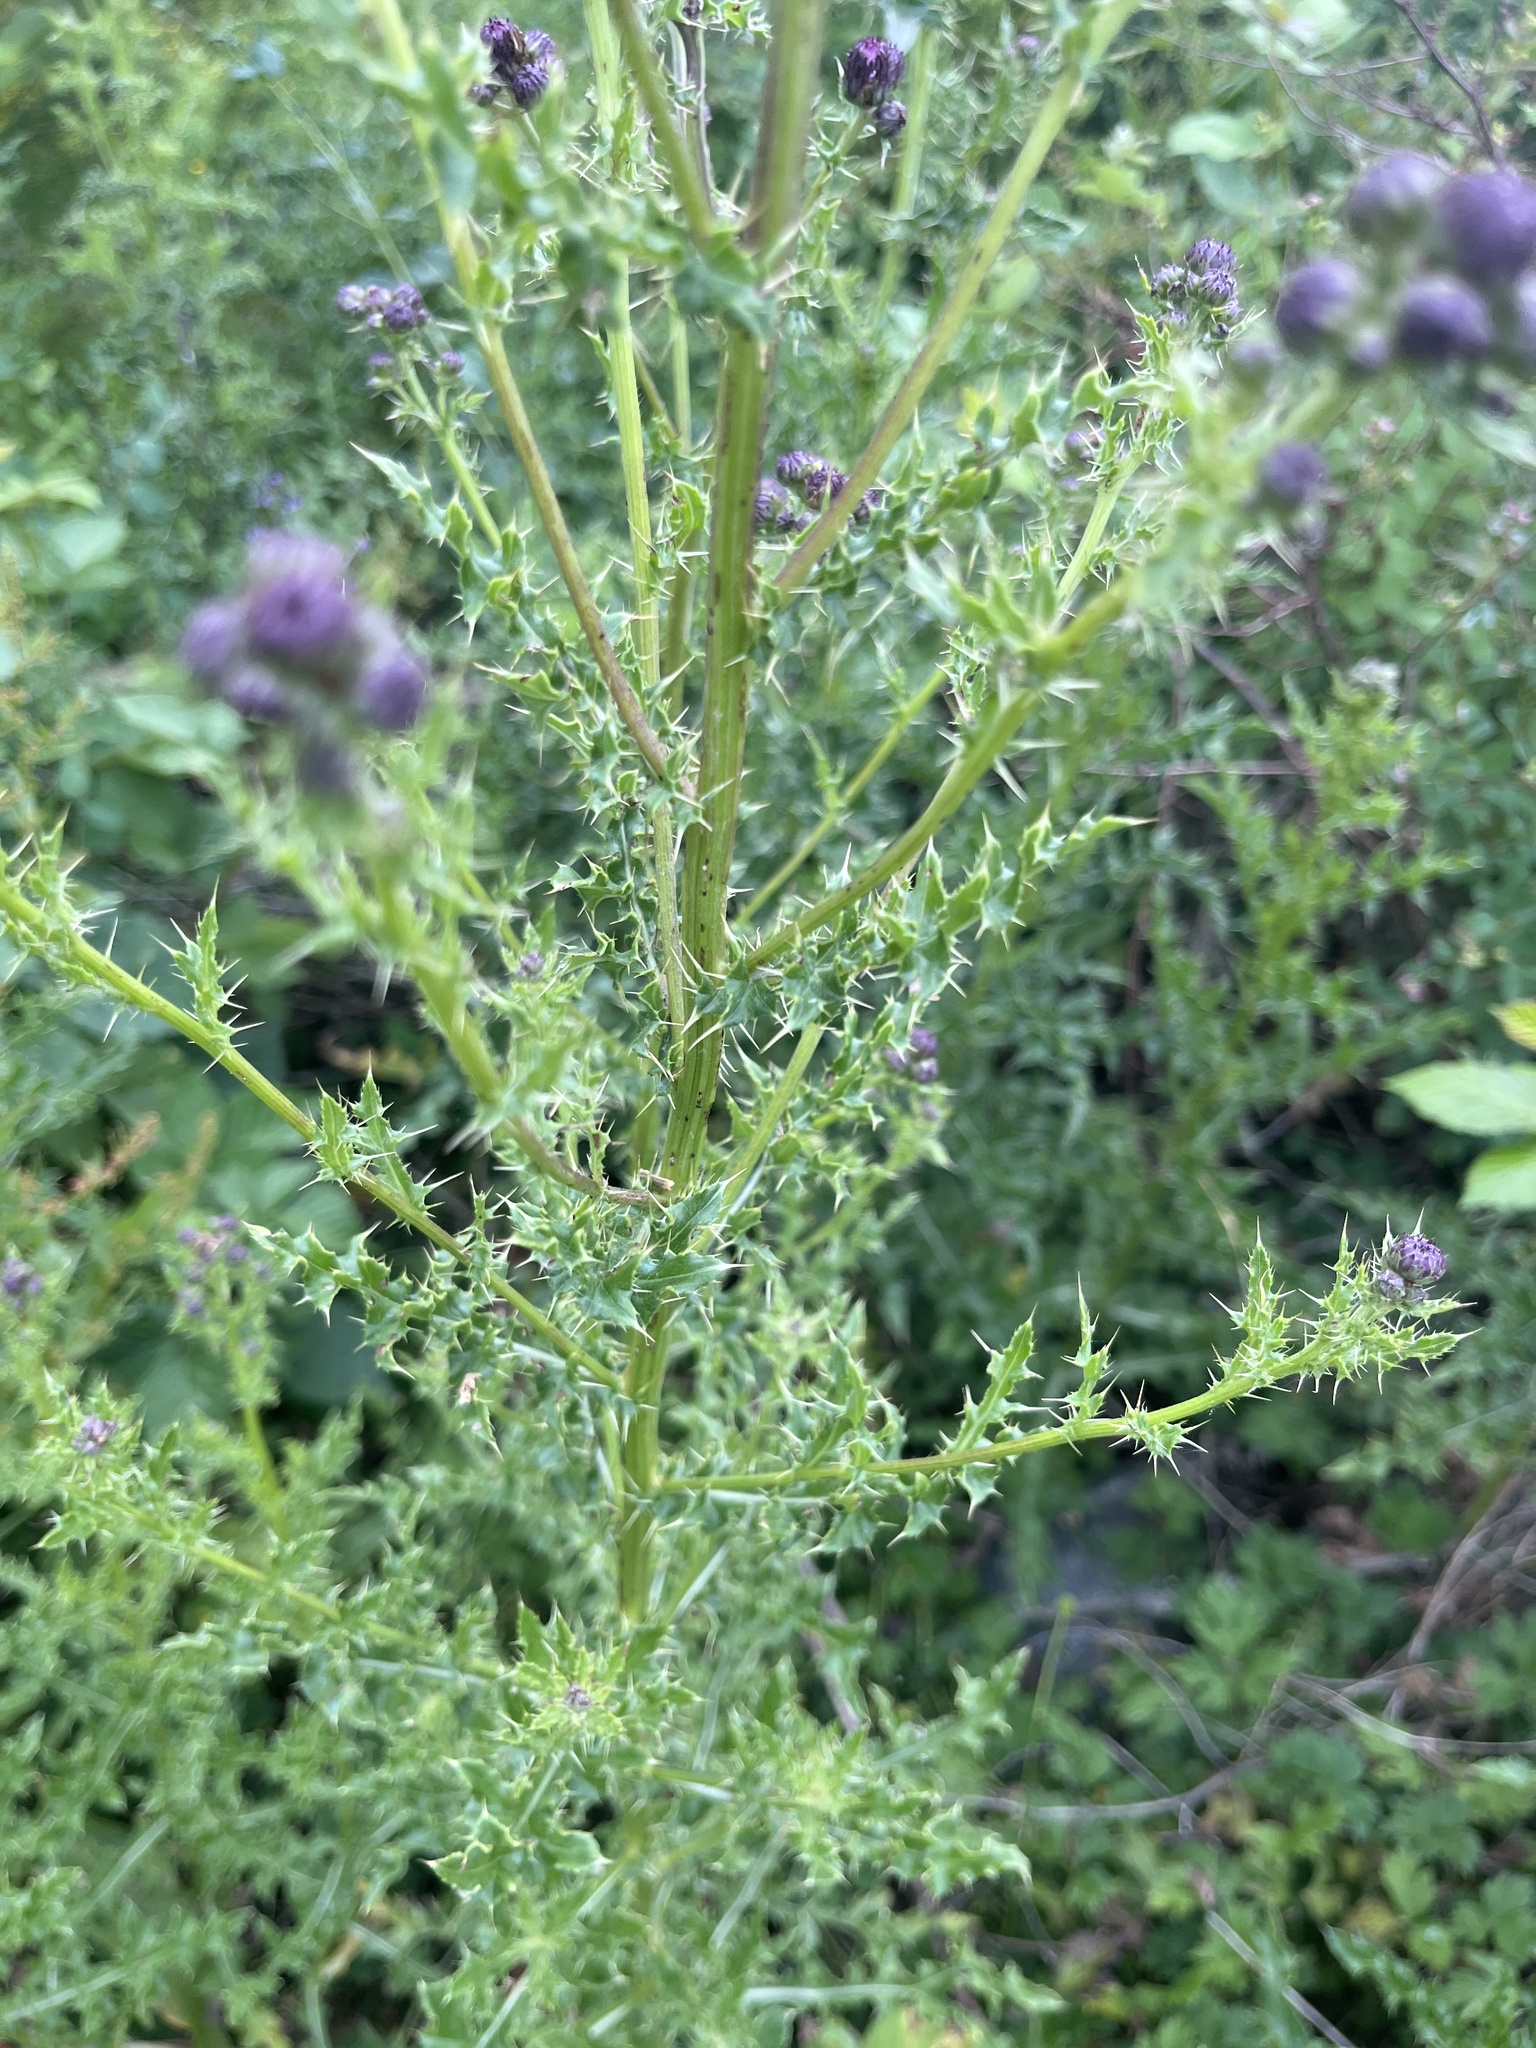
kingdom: Plantae
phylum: Tracheophyta
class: Magnoliopsida
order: Asterales
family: Asteraceae
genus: Cirsium
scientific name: Cirsium arvense
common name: Creeping thistle
